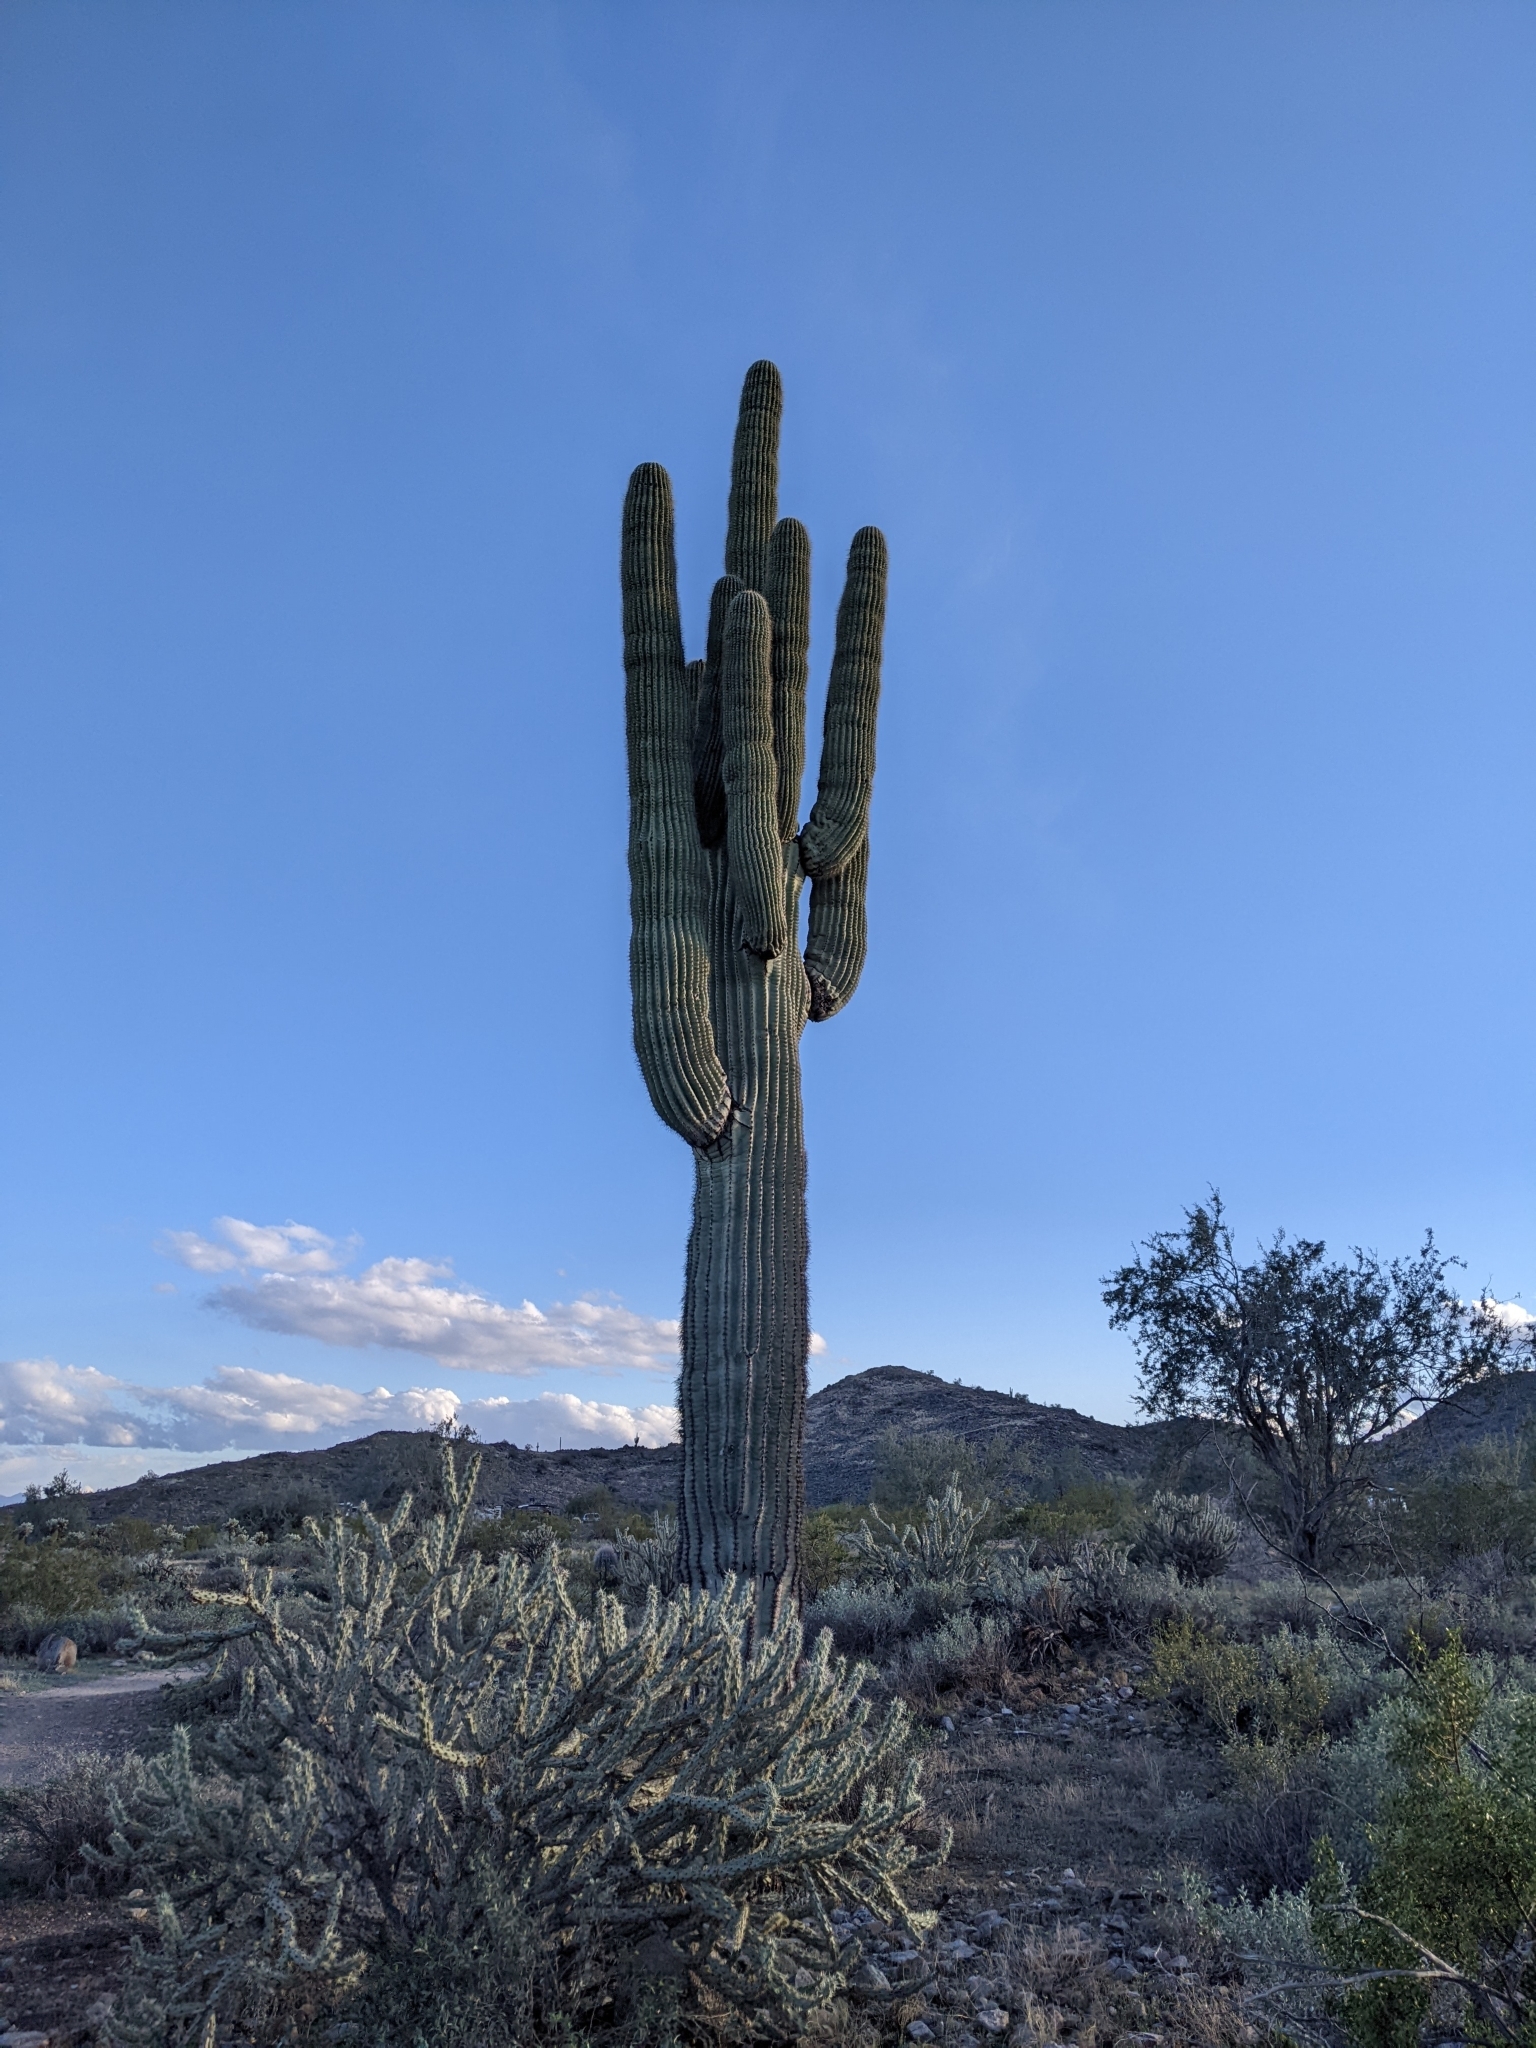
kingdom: Plantae
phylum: Tracheophyta
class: Magnoliopsida
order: Caryophyllales
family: Cactaceae
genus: Carnegiea
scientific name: Carnegiea gigantea
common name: Saguaro
